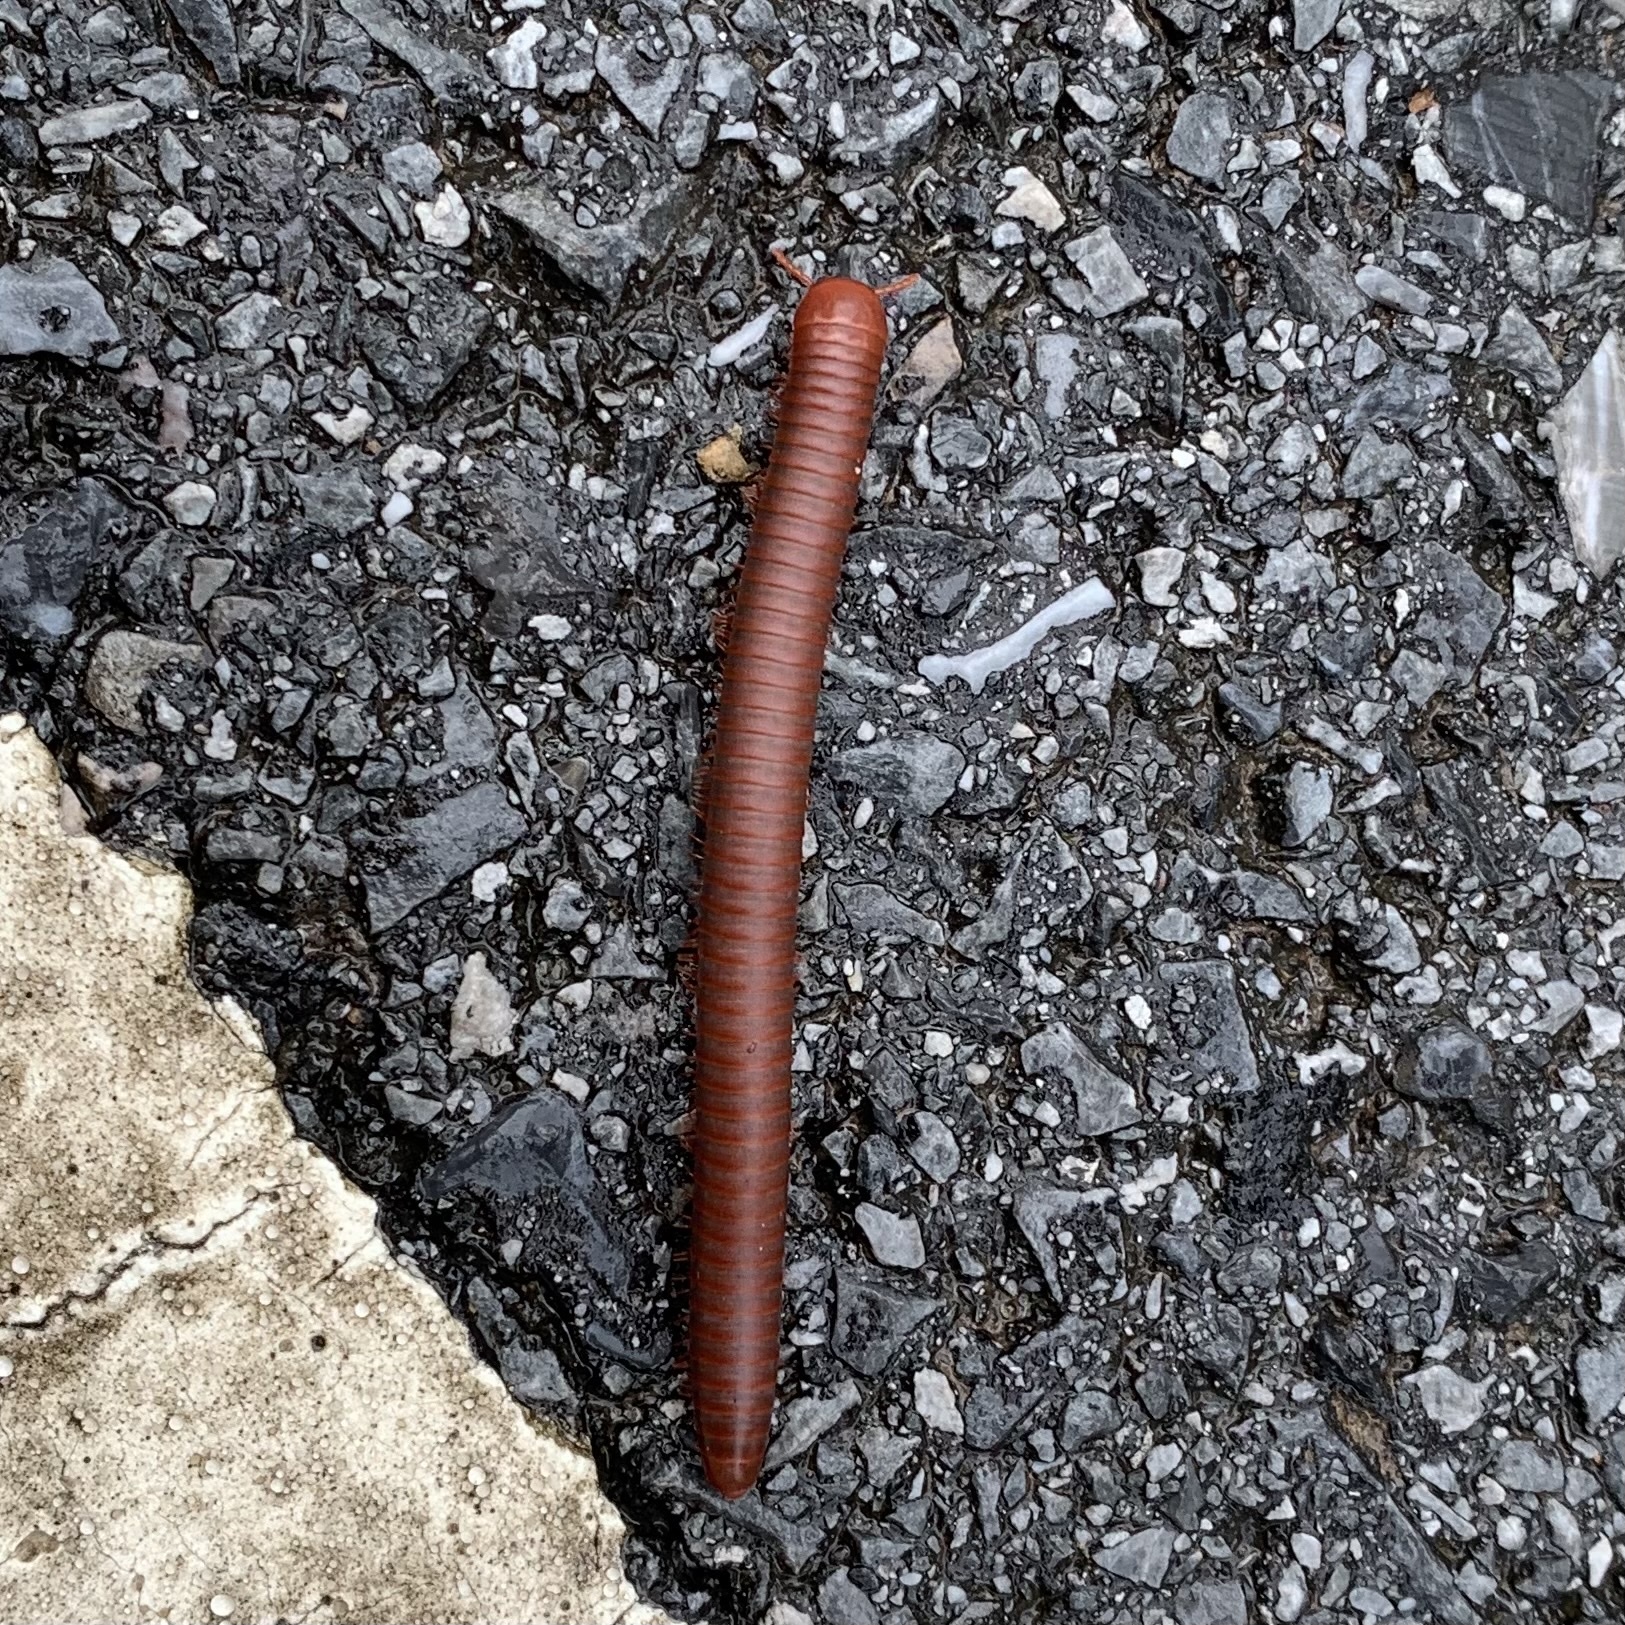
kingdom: Animalia
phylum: Arthropoda
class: Diplopoda
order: Spirobolida
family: Pachybolidae
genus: Trigoniulus
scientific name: Trigoniulus corallinus
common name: Millipede
